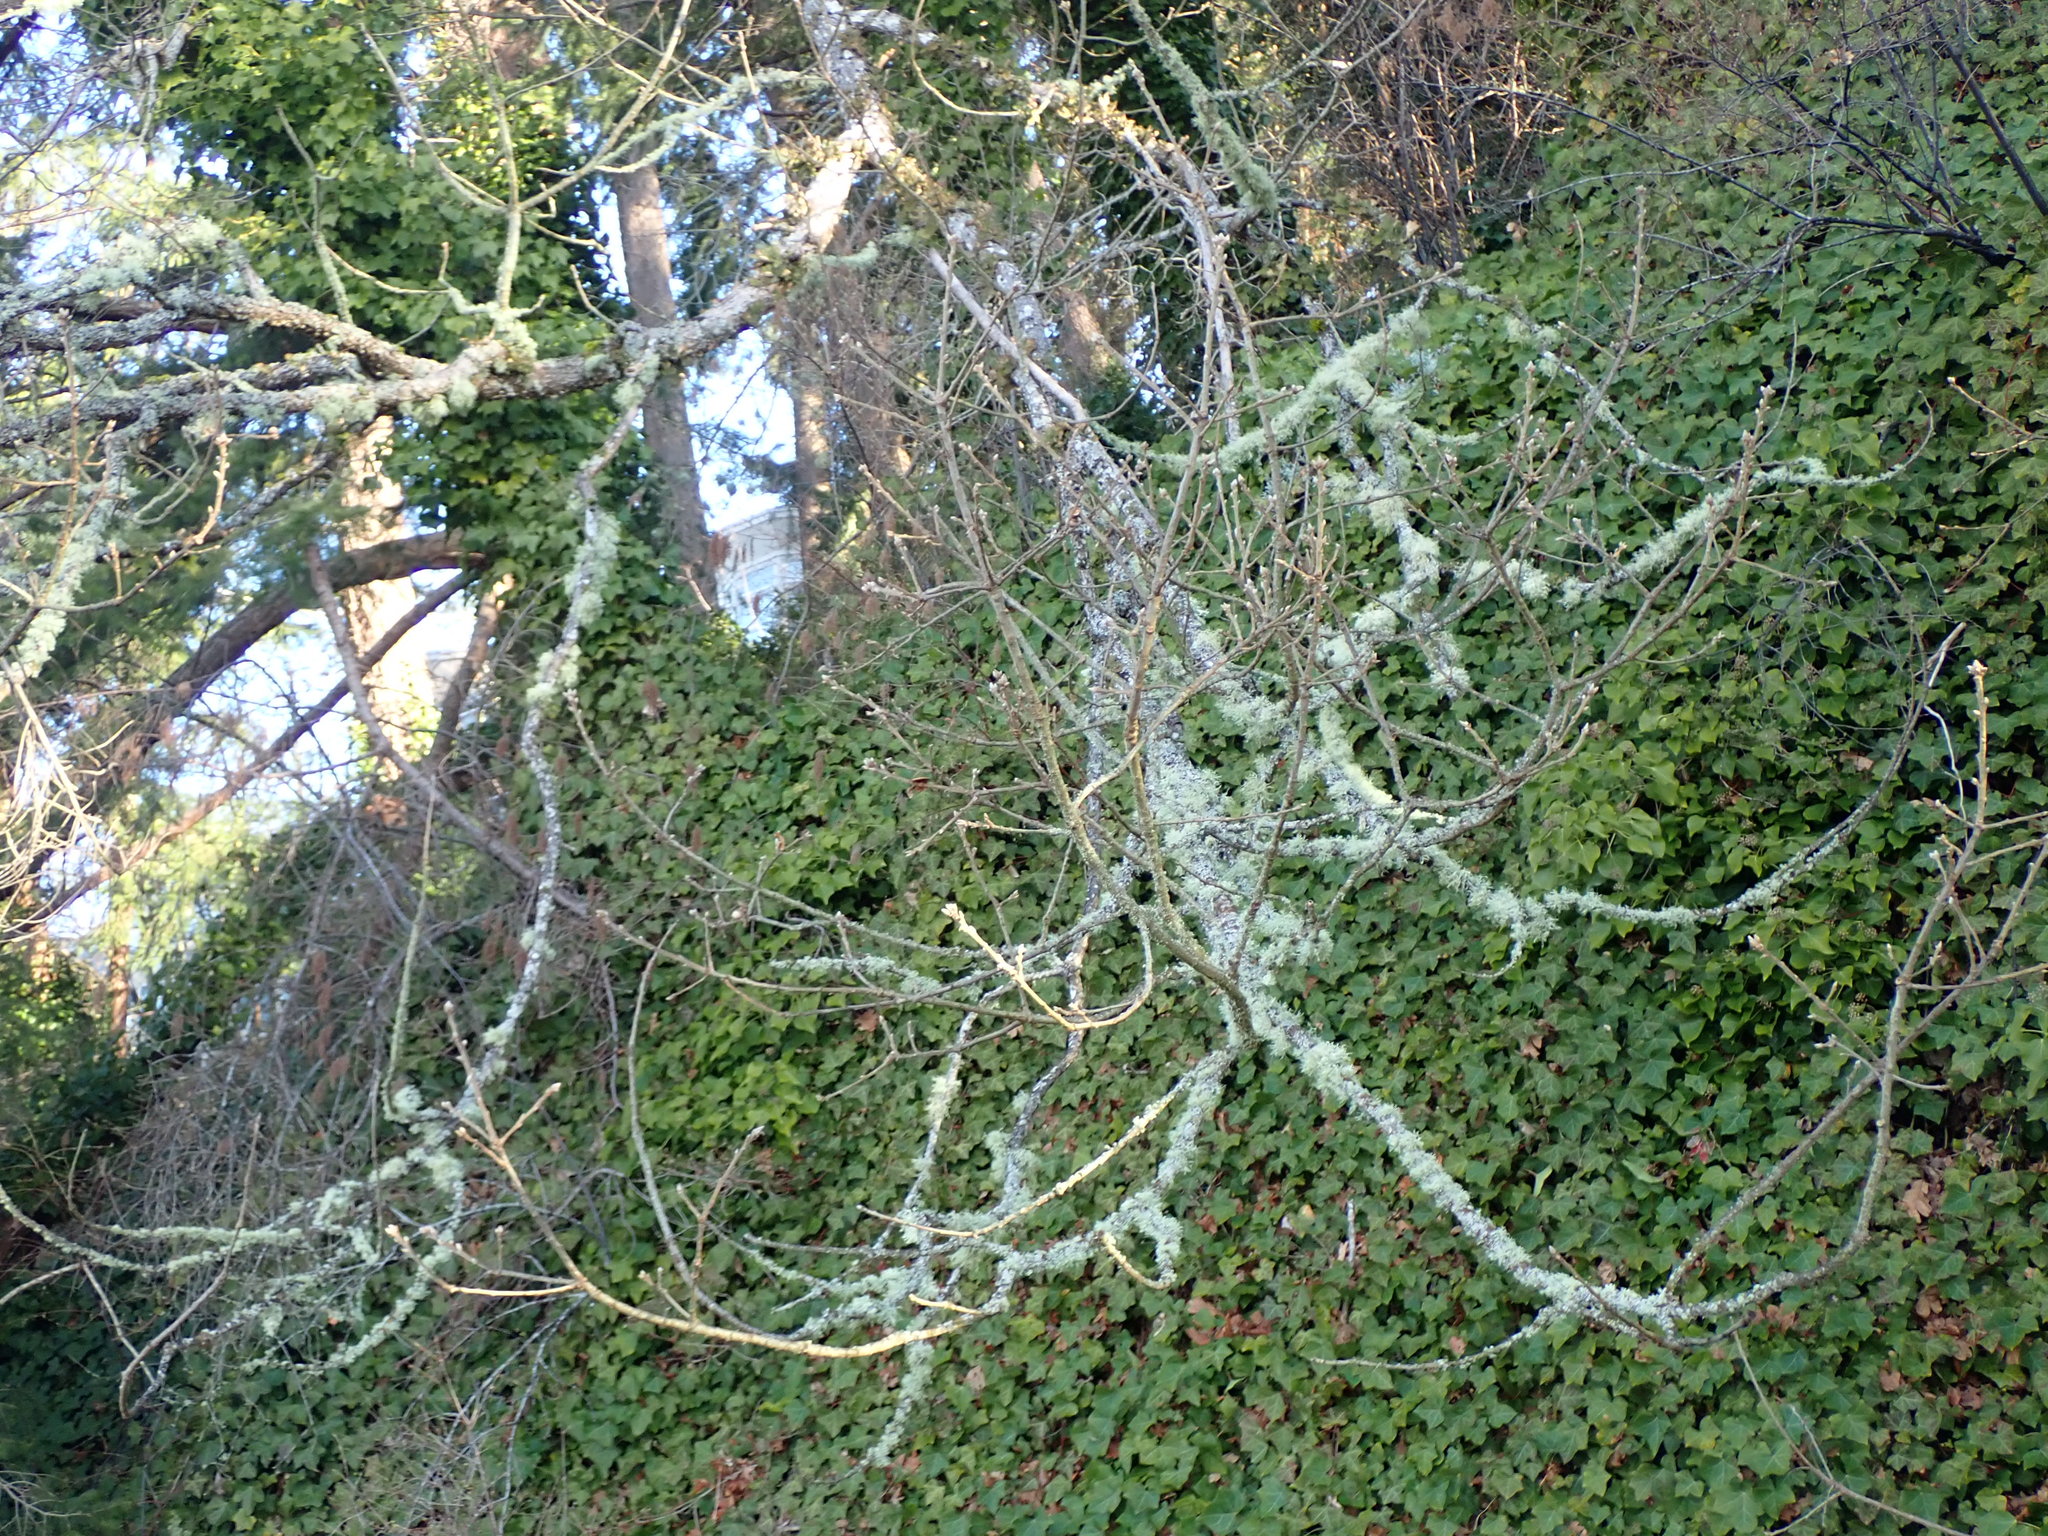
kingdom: Plantae
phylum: Tracheophyta
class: Magnoliopsida
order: Fagales
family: Fagaceae
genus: Quercus
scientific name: Quercus garryana
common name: Garry oak
